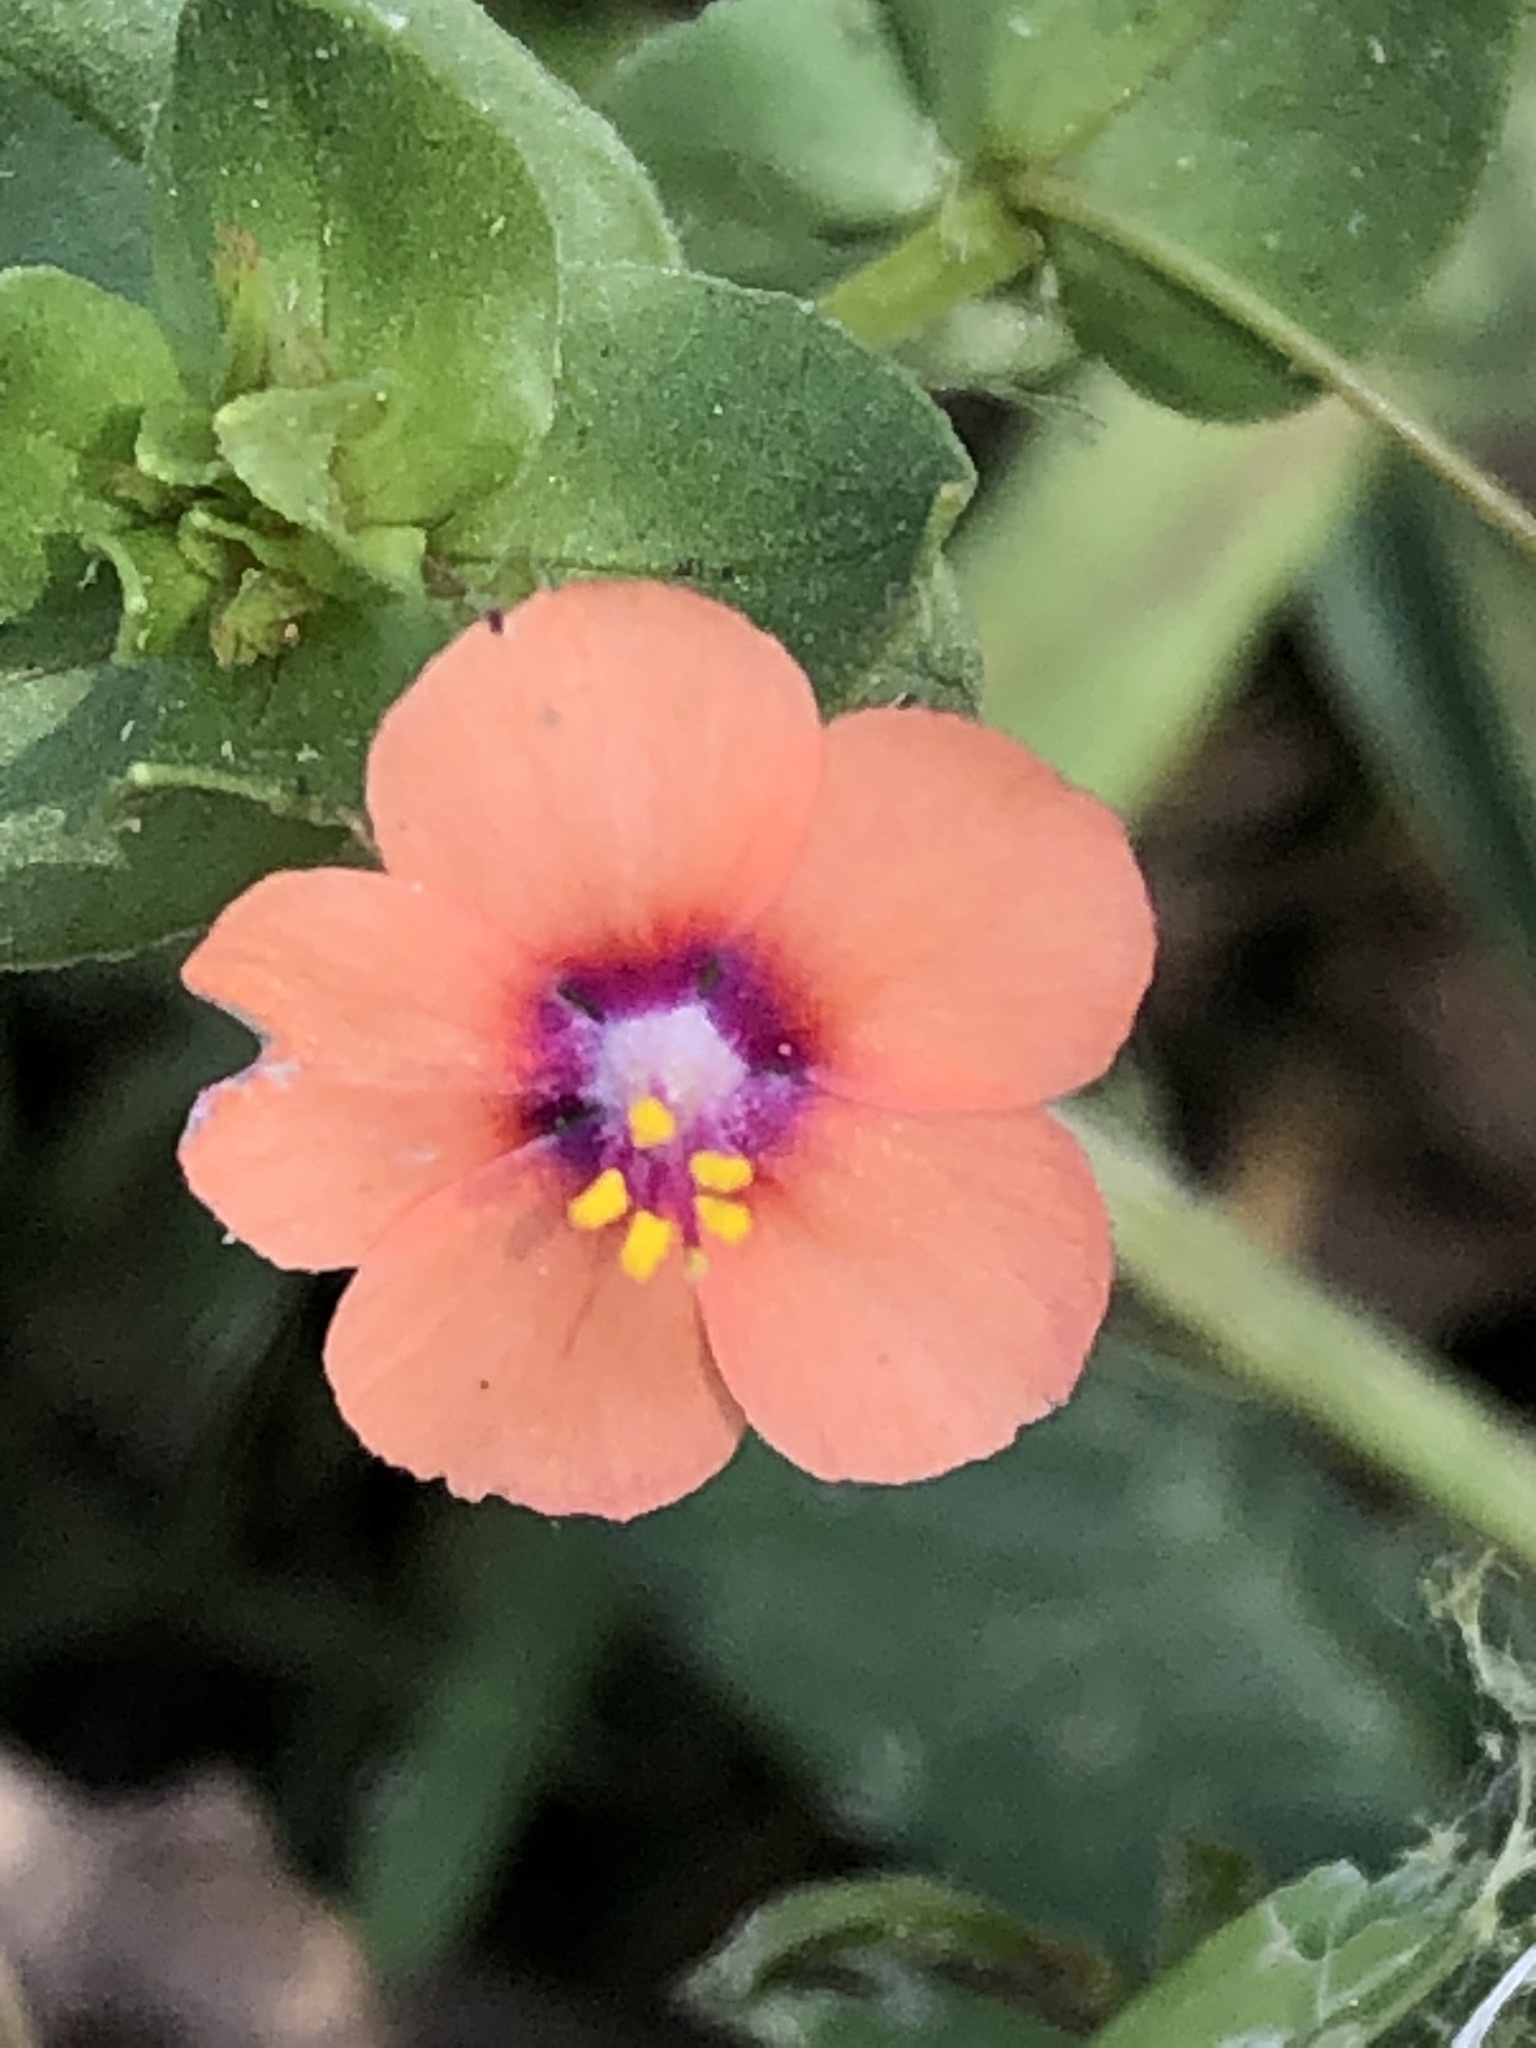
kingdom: Plantae
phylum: Tracheophyta
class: Magnoliopsida
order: Ericales
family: Primulaceae
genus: Lysimachia
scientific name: Lysimachia arvensis
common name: Scarlet pimpernel
